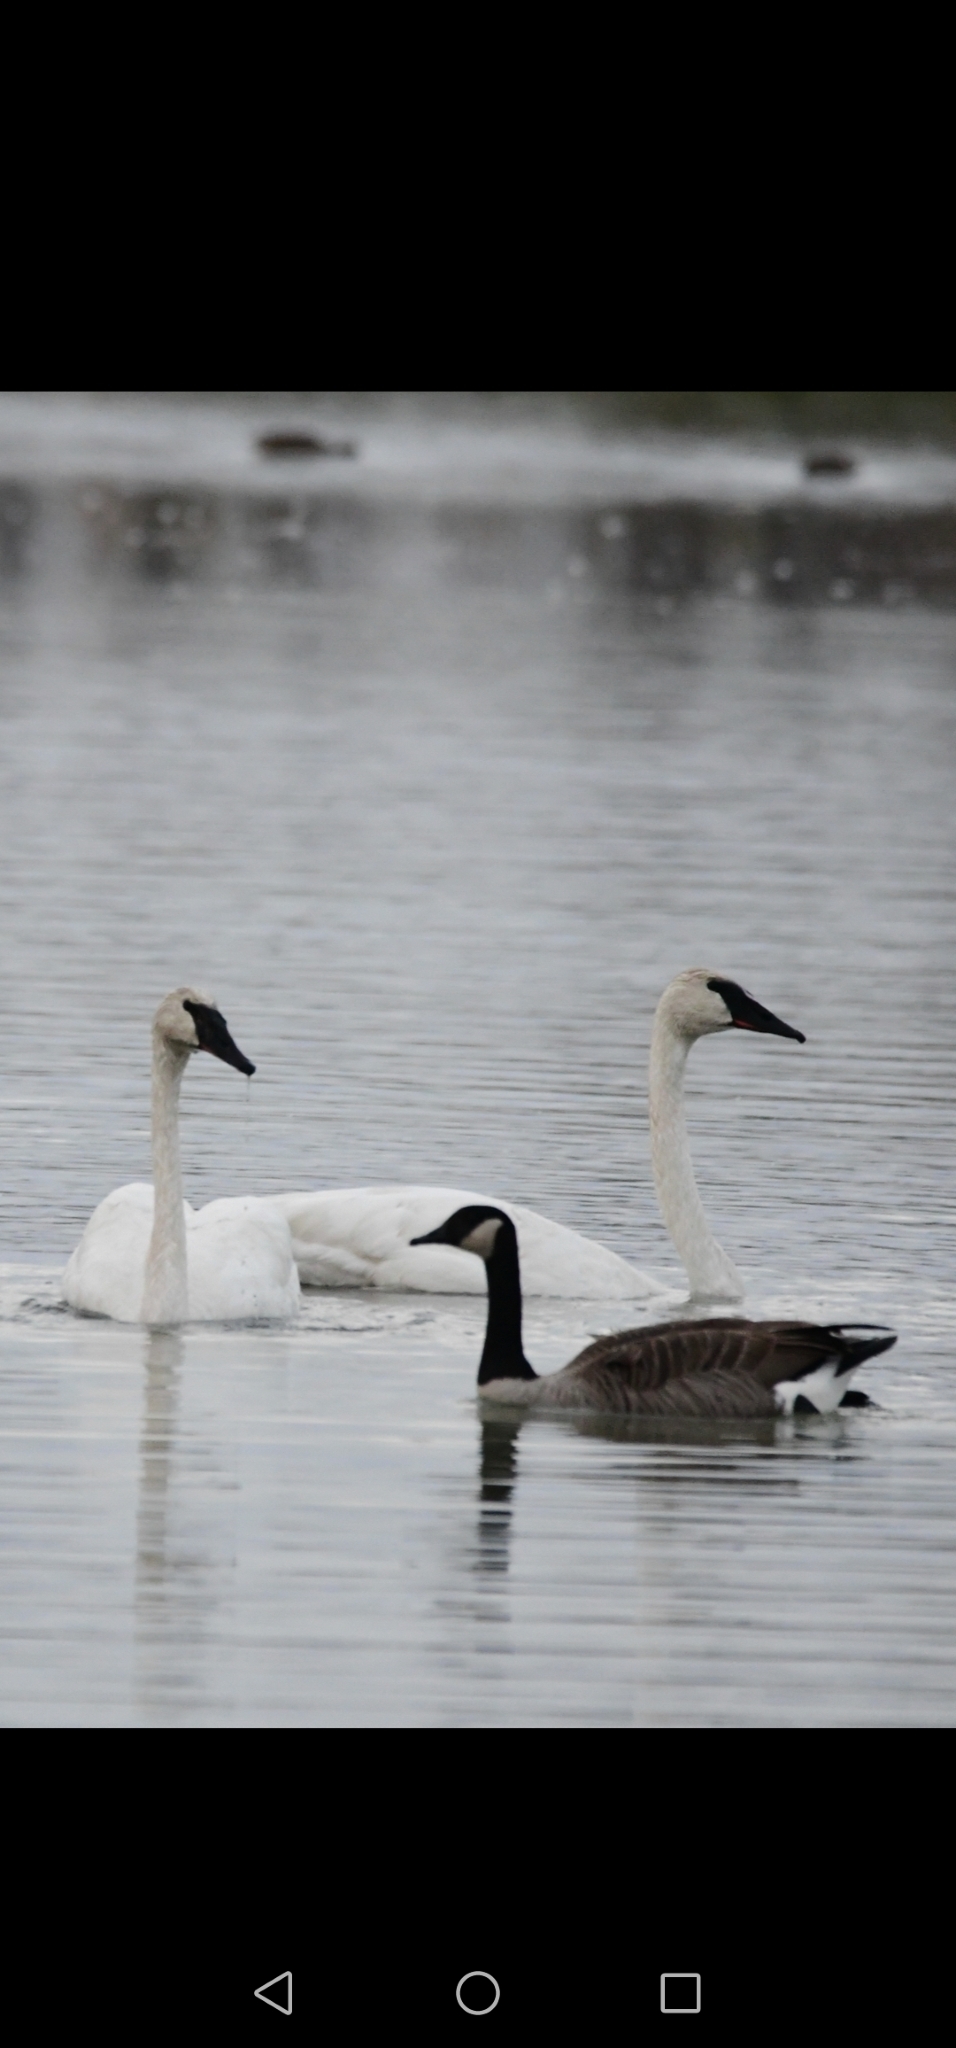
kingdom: Animalia
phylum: Chordata
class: Aves
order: Anseriformes
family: Anatidae
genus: Cygnus
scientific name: Cygnus buccinator
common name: Trumpeter swan
